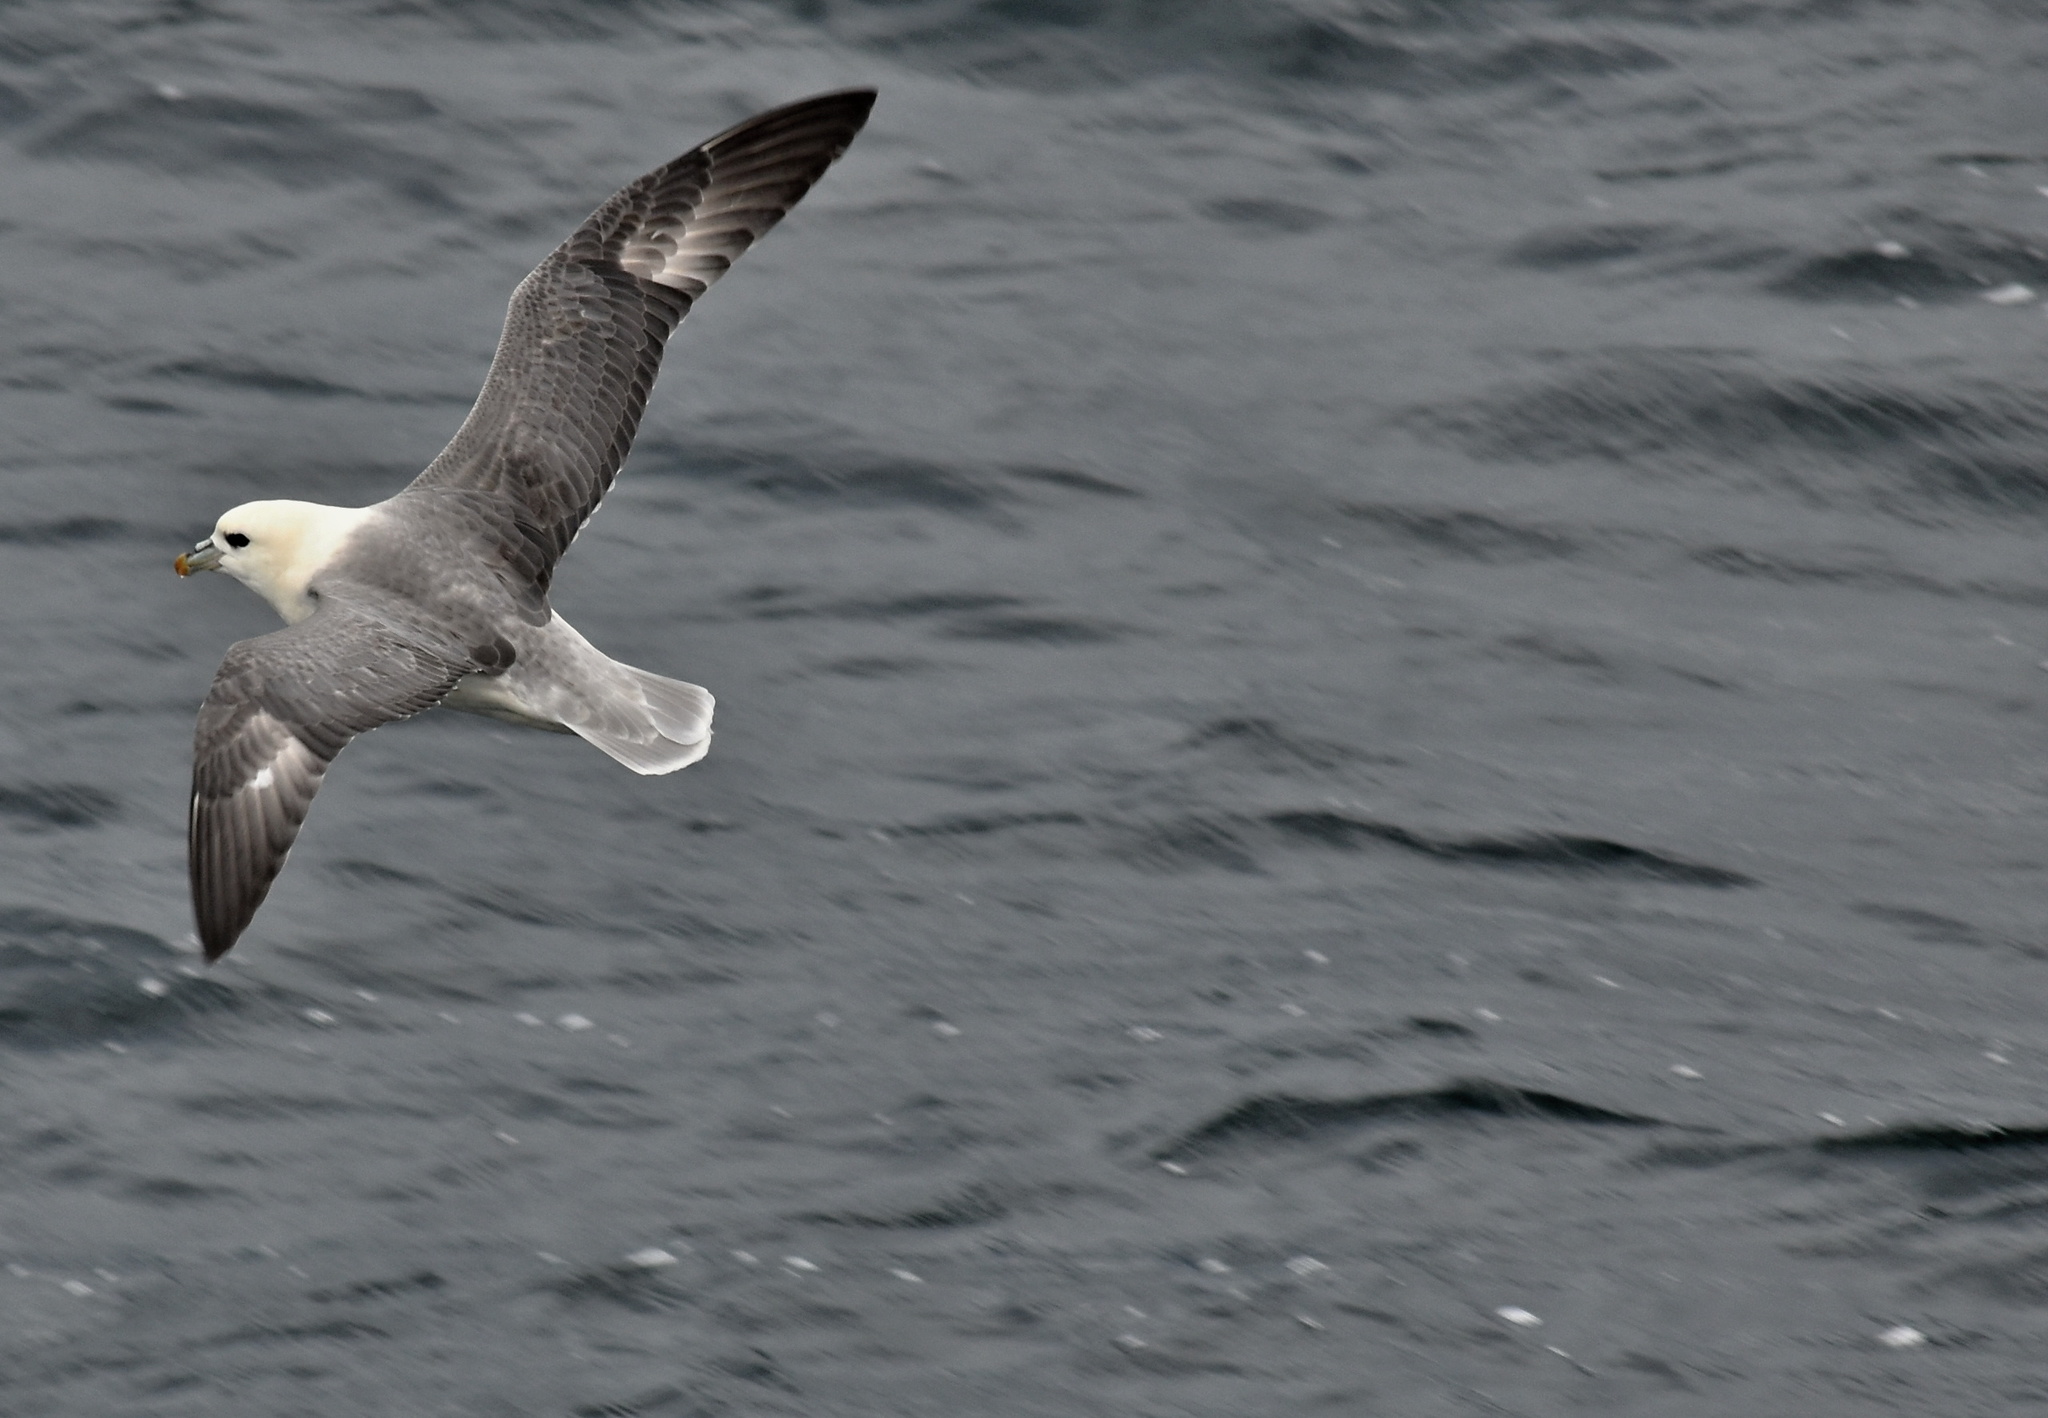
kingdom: Animalia
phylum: Chordata
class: Aves
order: Procellariiformes
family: Procellariidae
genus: Fulmarus
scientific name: Fulmarus glacialis
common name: Northern fulmar
